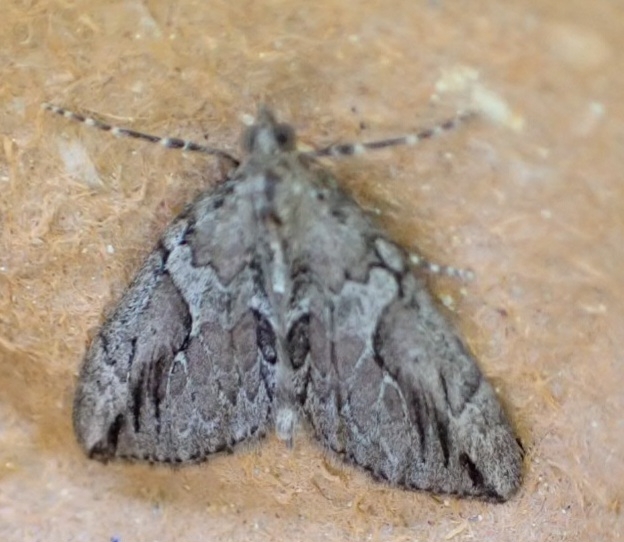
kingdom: Animalia
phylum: Arthropoda
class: Insecta
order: Lepidoptera
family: Geometridae
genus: Thera
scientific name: Thera cupressata
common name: Cypress carpet
